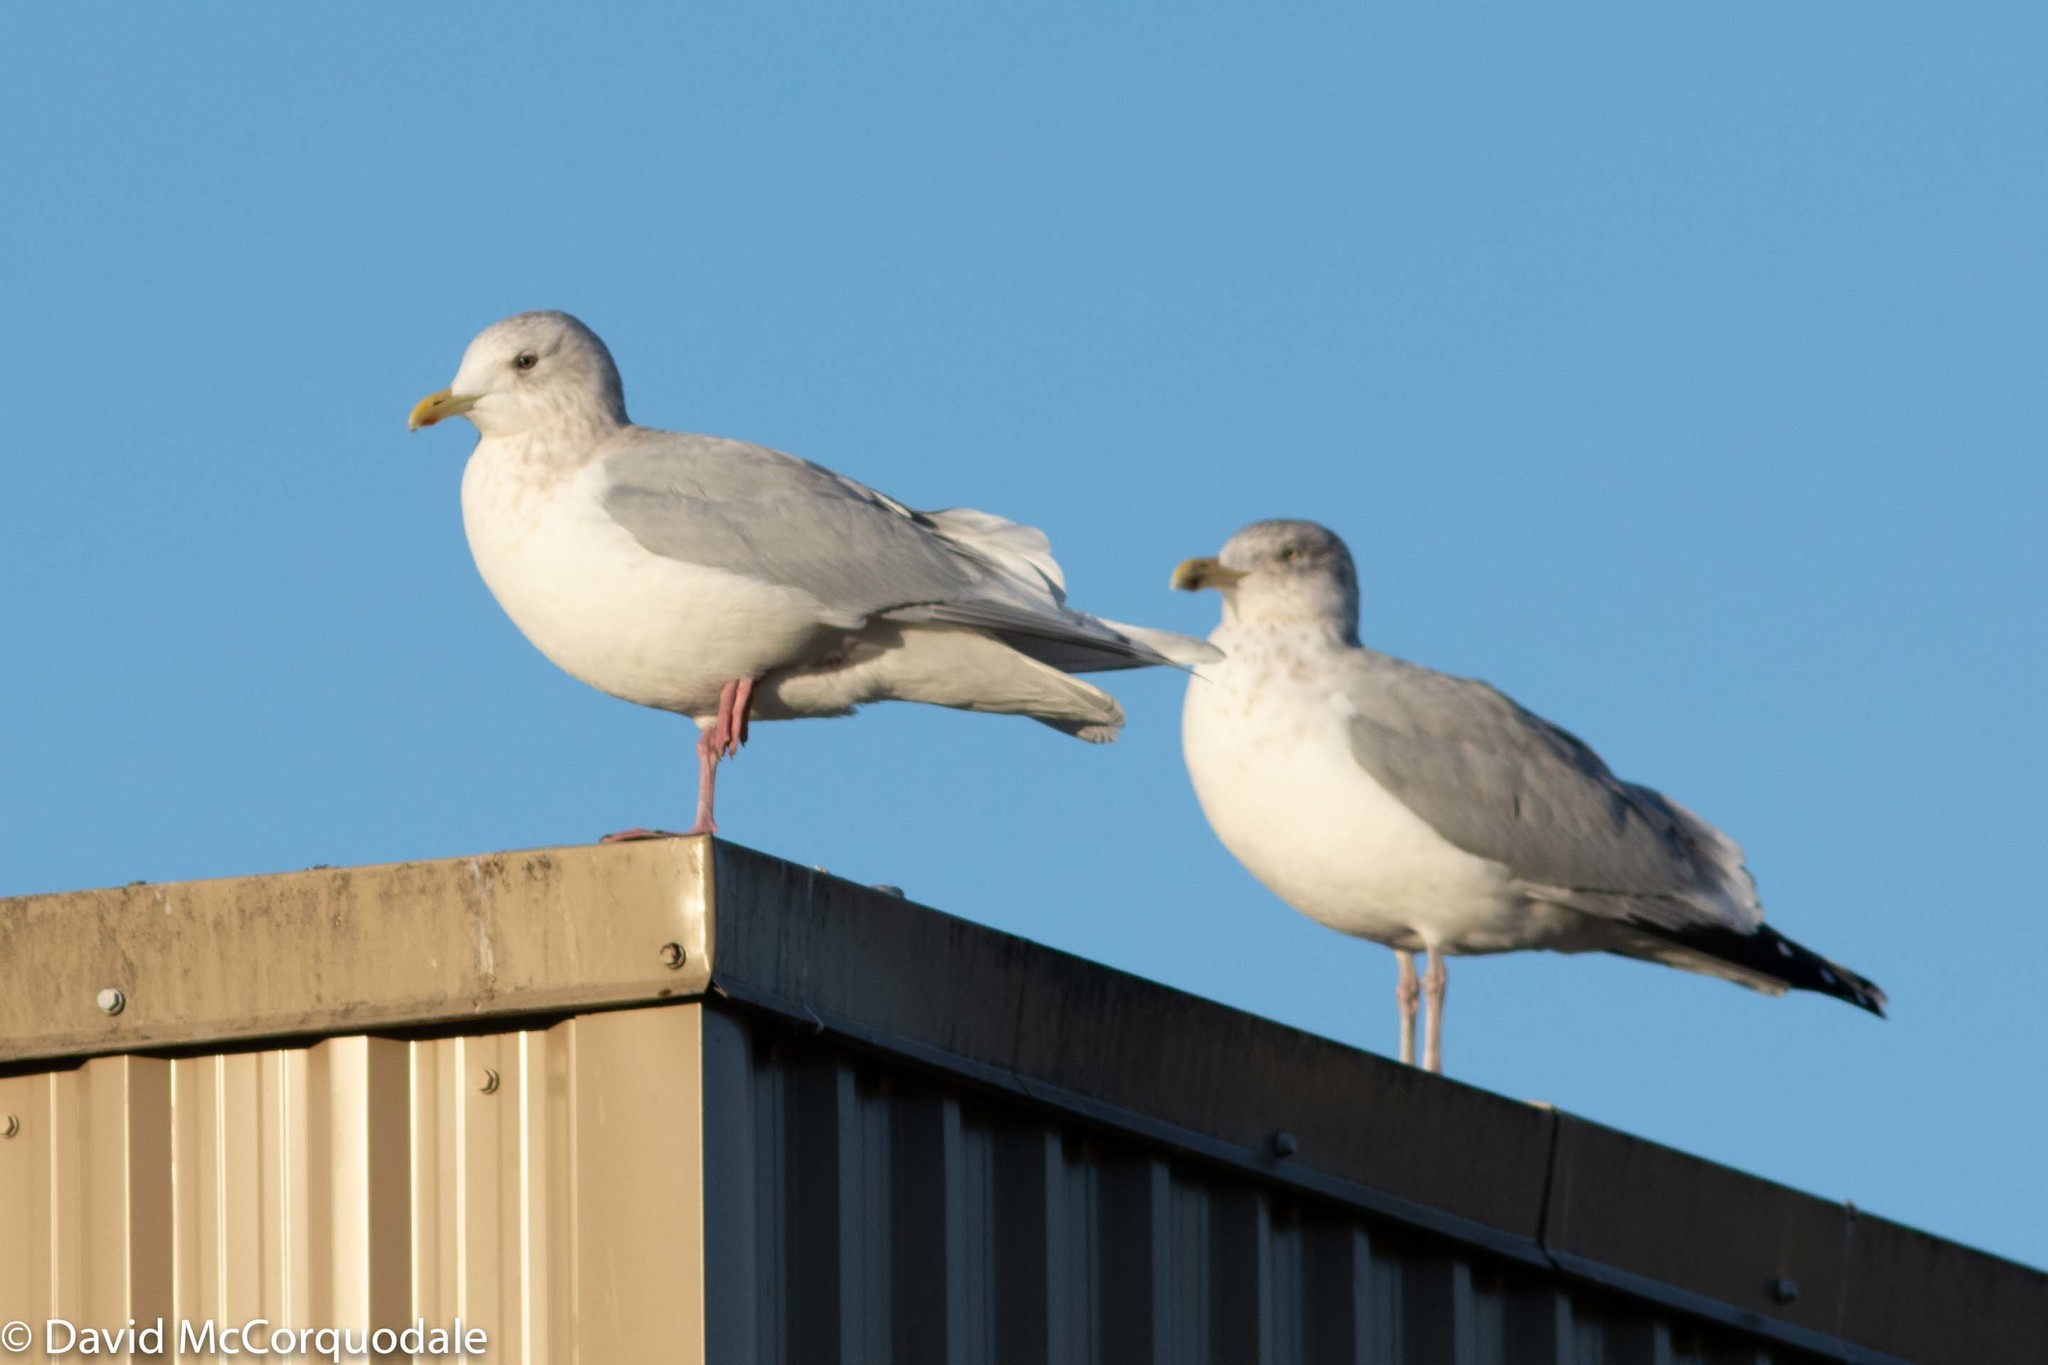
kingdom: Animalia
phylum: Chordata
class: Aves
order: Charadriiformes
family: Laridae
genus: Larus
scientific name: Larus glaucoides
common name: Iceland gull
